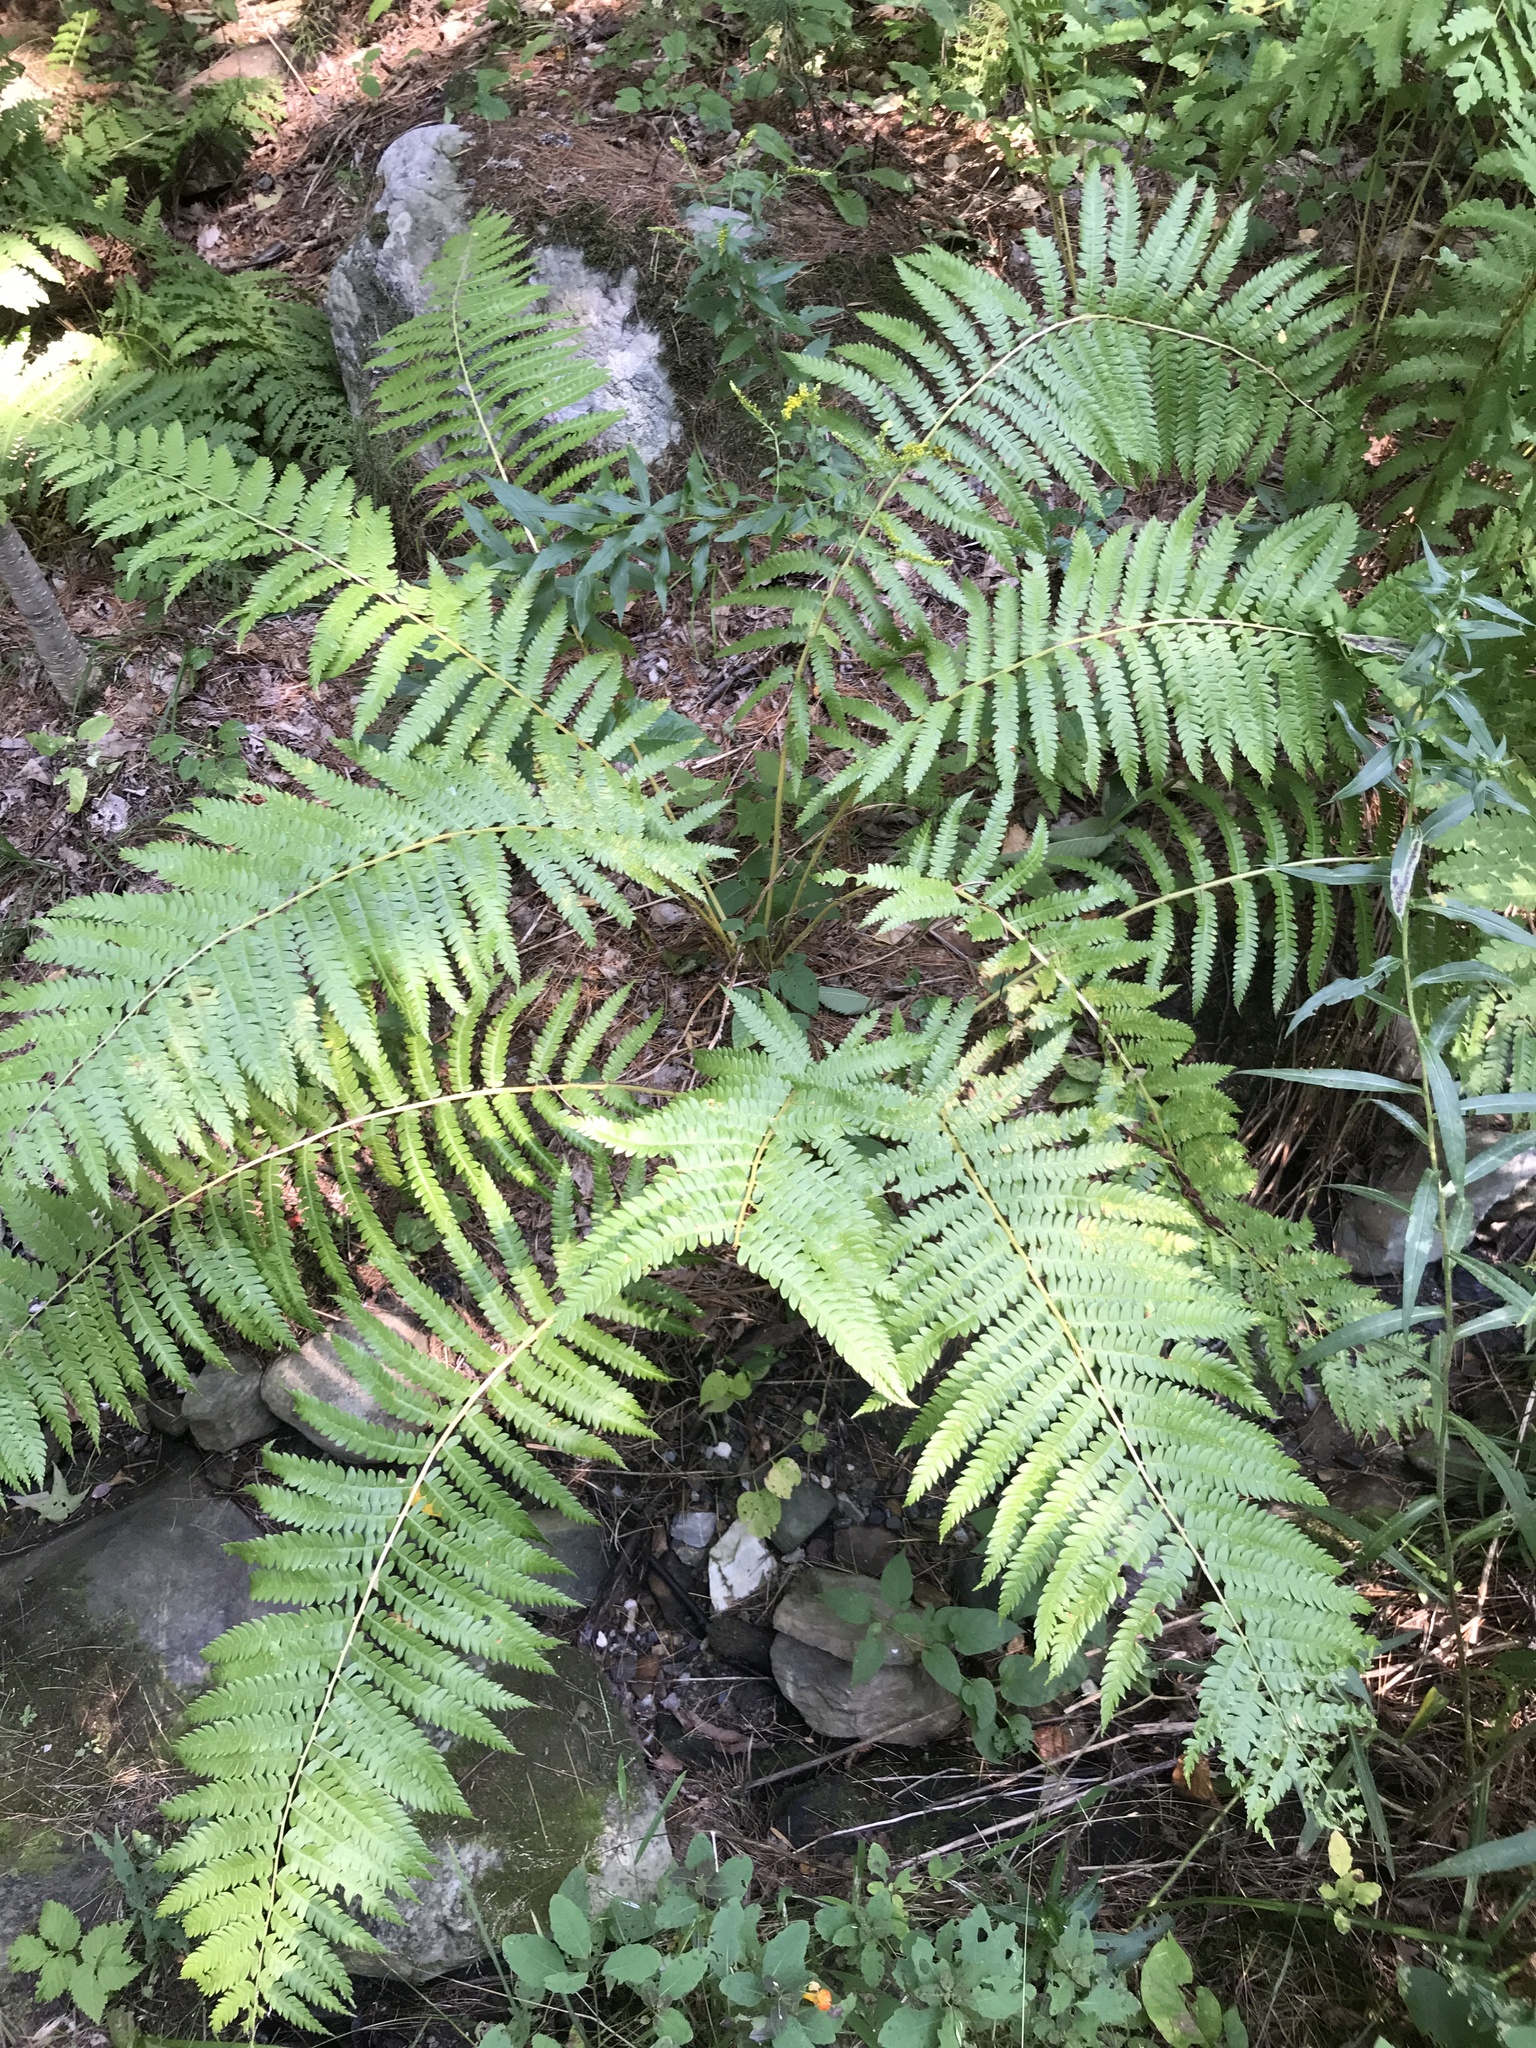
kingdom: Plantae
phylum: Tracheophyta
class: Polypodiopsida
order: Osmundales
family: Osmundaceae
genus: Osmundastrum
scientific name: Osmundastrum cinnamomeum
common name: Cinnamon fern
